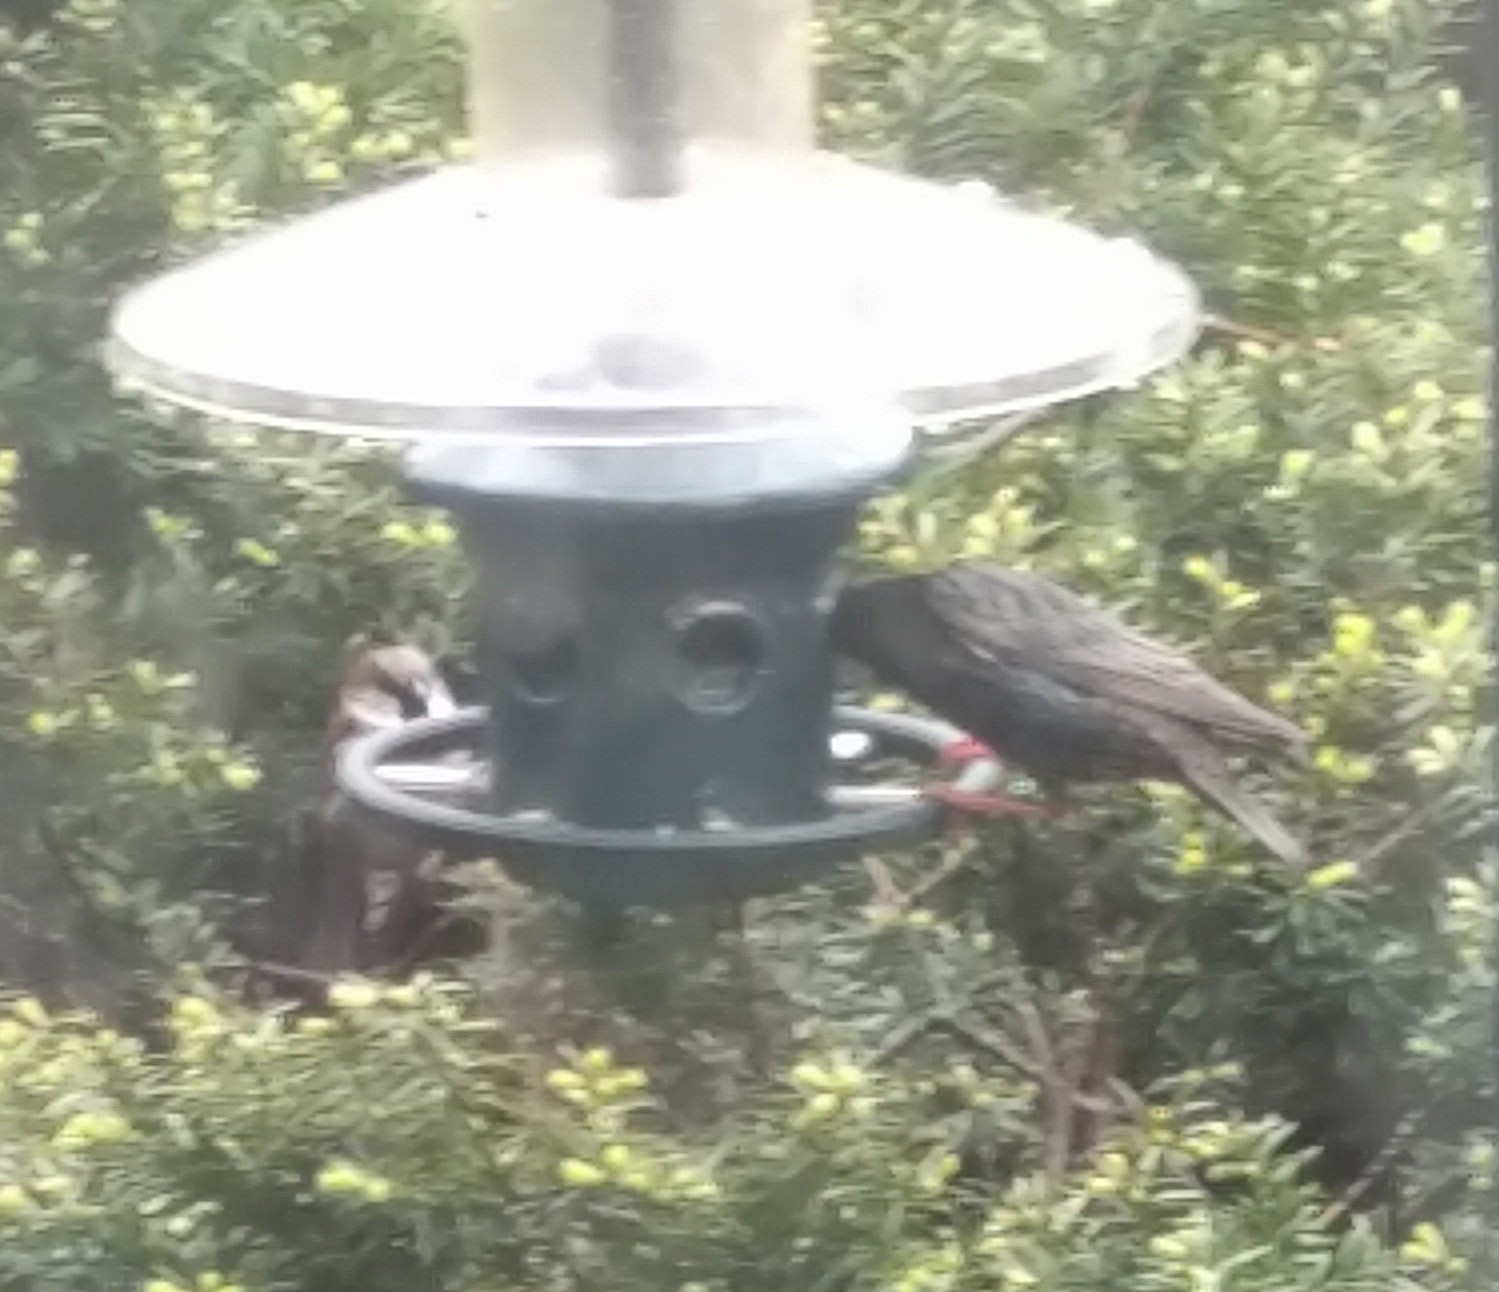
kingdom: Animalia
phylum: Chordata
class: Aves
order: Passeriformes
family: Passeridae
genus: Passer
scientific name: Passer domesticus
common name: House sparrow
